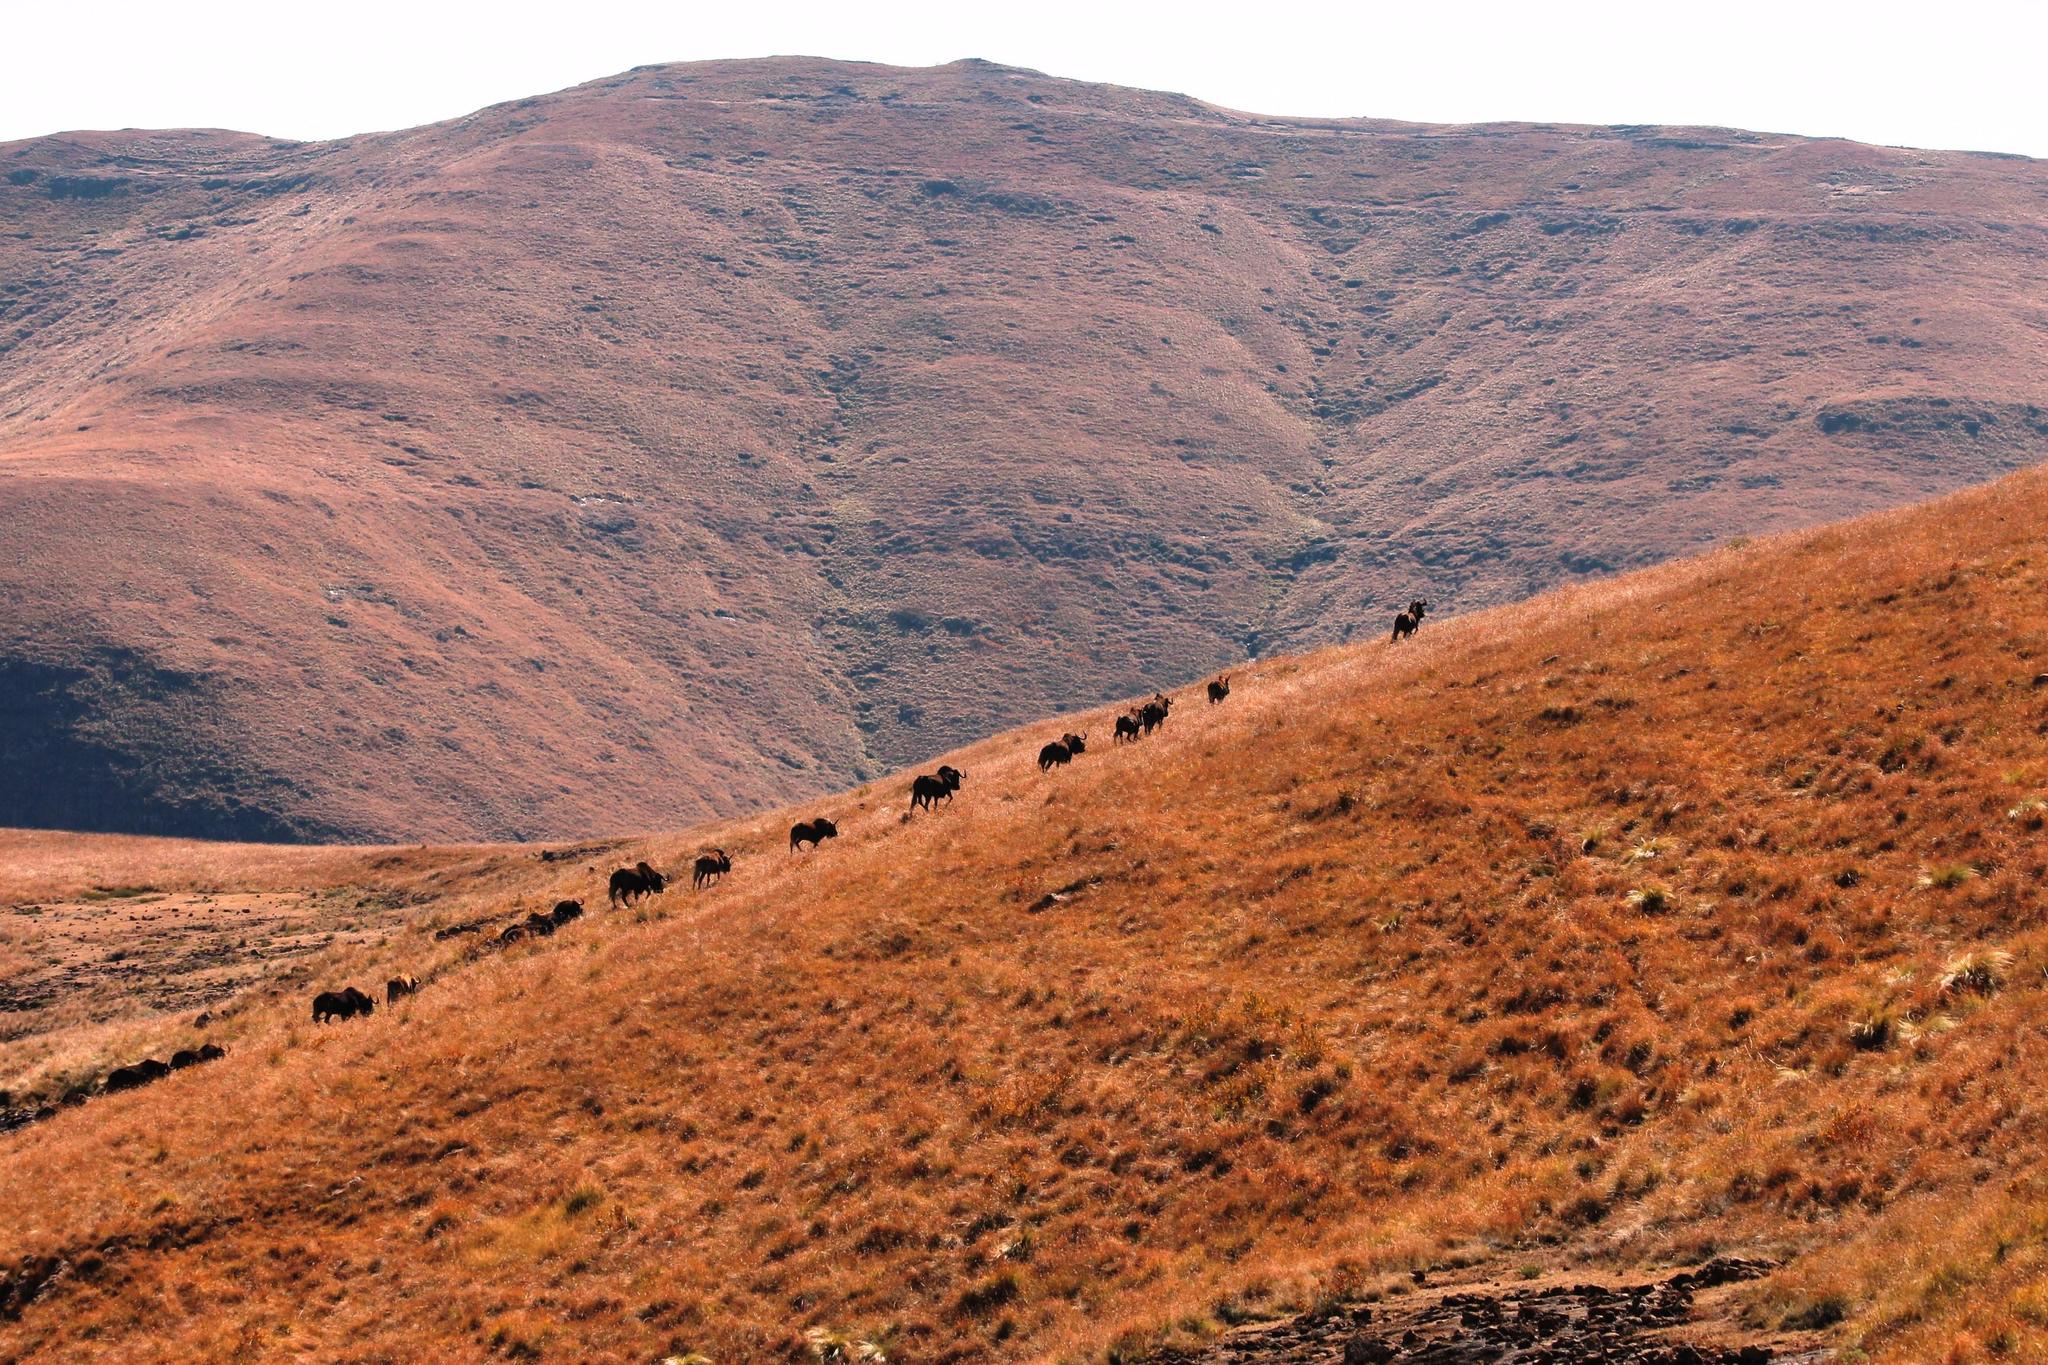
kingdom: Animalia
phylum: Chordata
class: Mammalia
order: Artiodactyla
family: Bovidae
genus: Connochaetes
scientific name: Connochaetes gnou
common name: Black wildebeest
